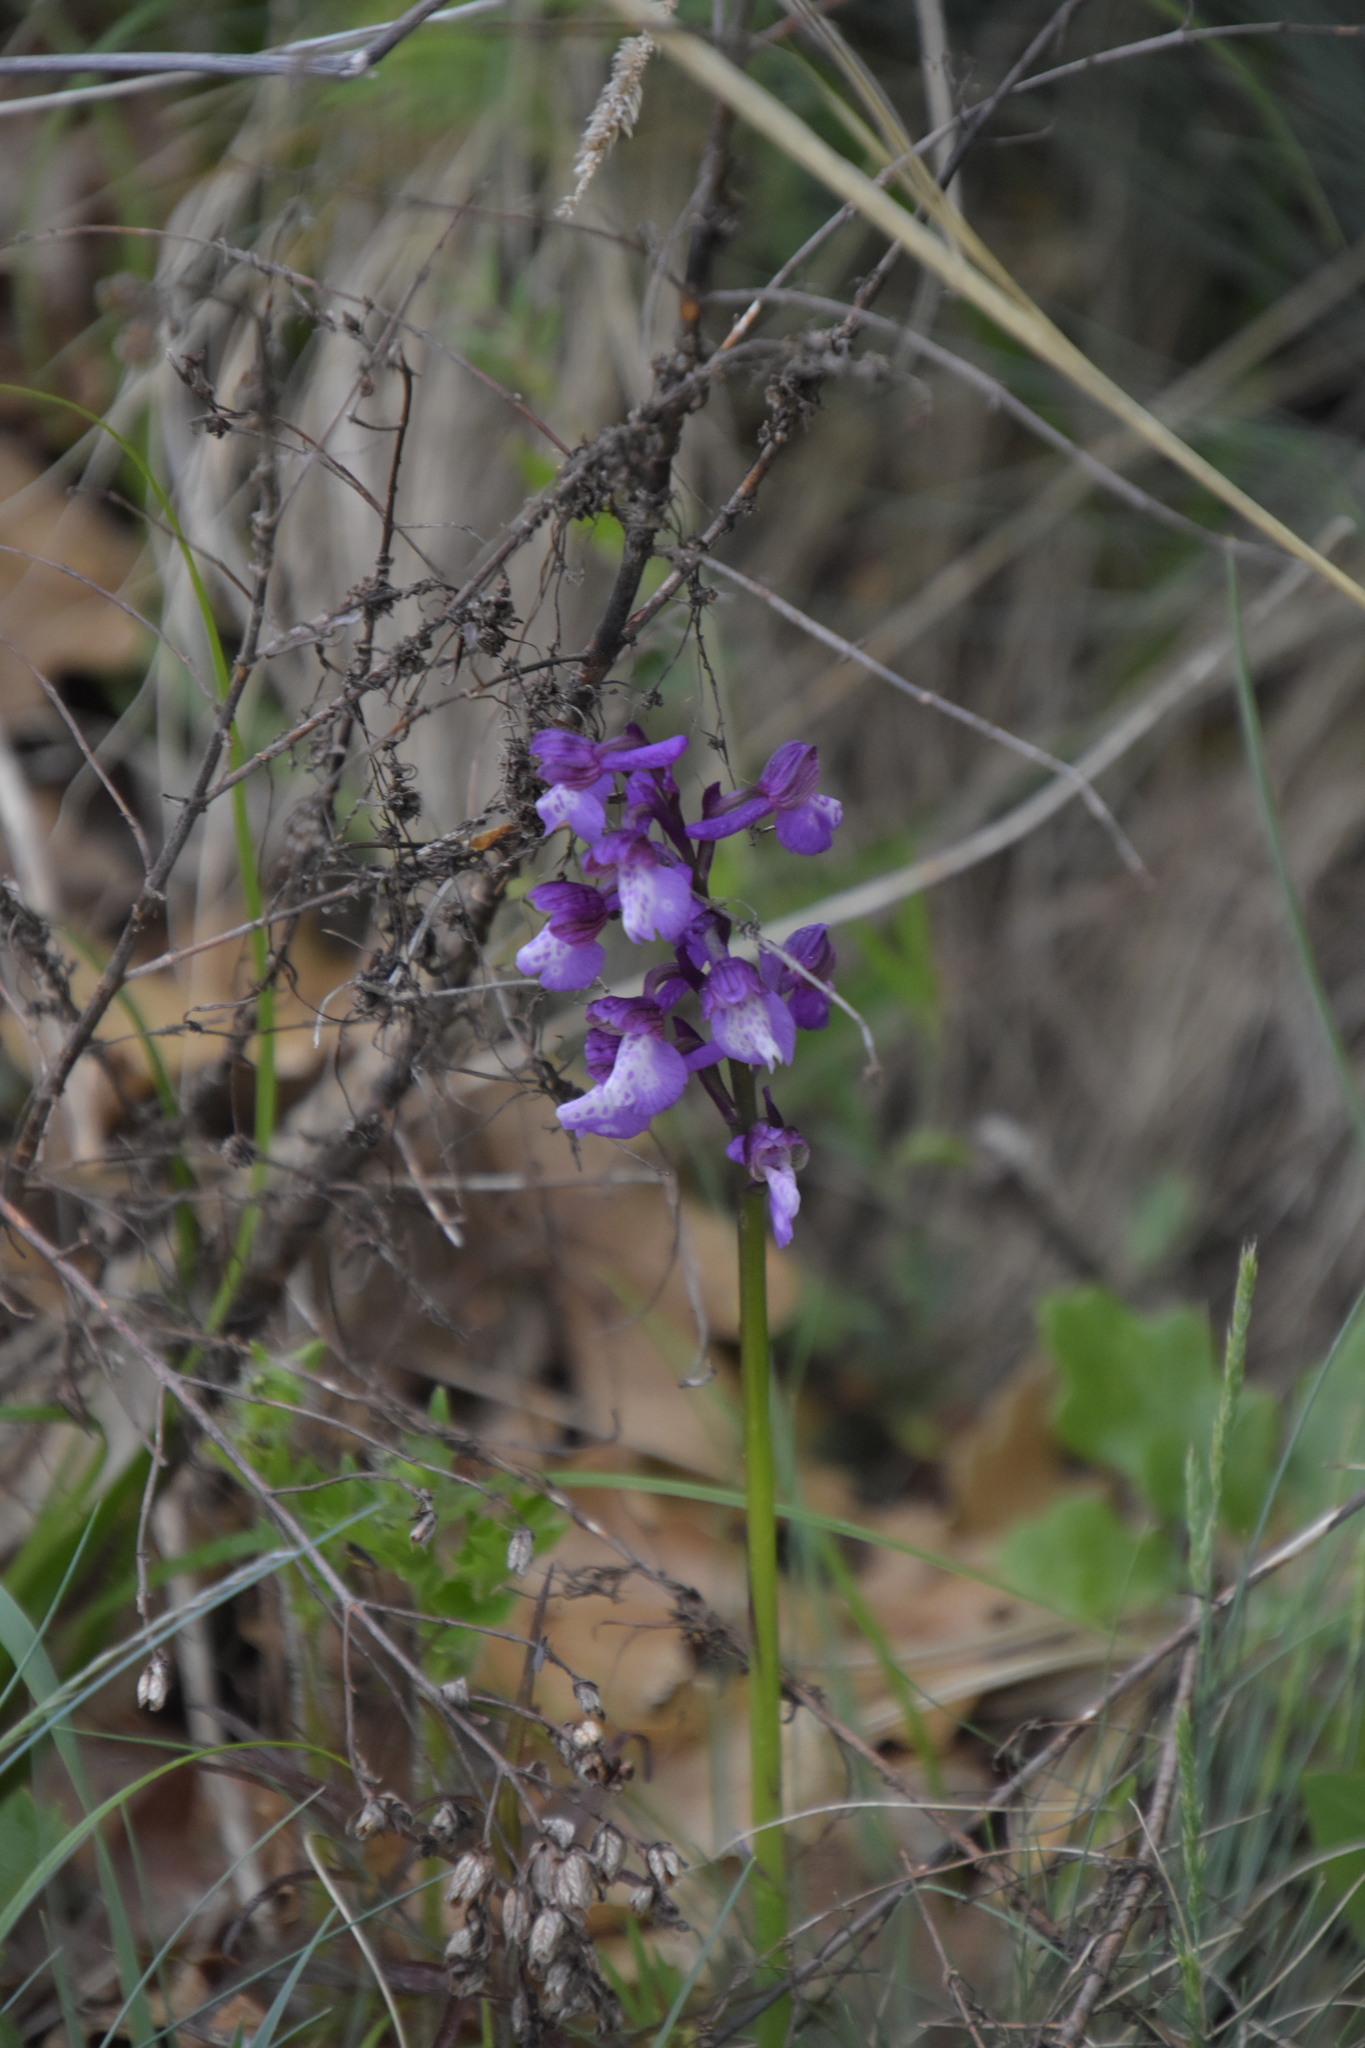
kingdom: Plantae
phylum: Tracheophyta
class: Liliopsida
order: Asparagales
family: Orchidaceae
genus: Anacamptis
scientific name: Anacamptis morio
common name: Green-winged orchid
